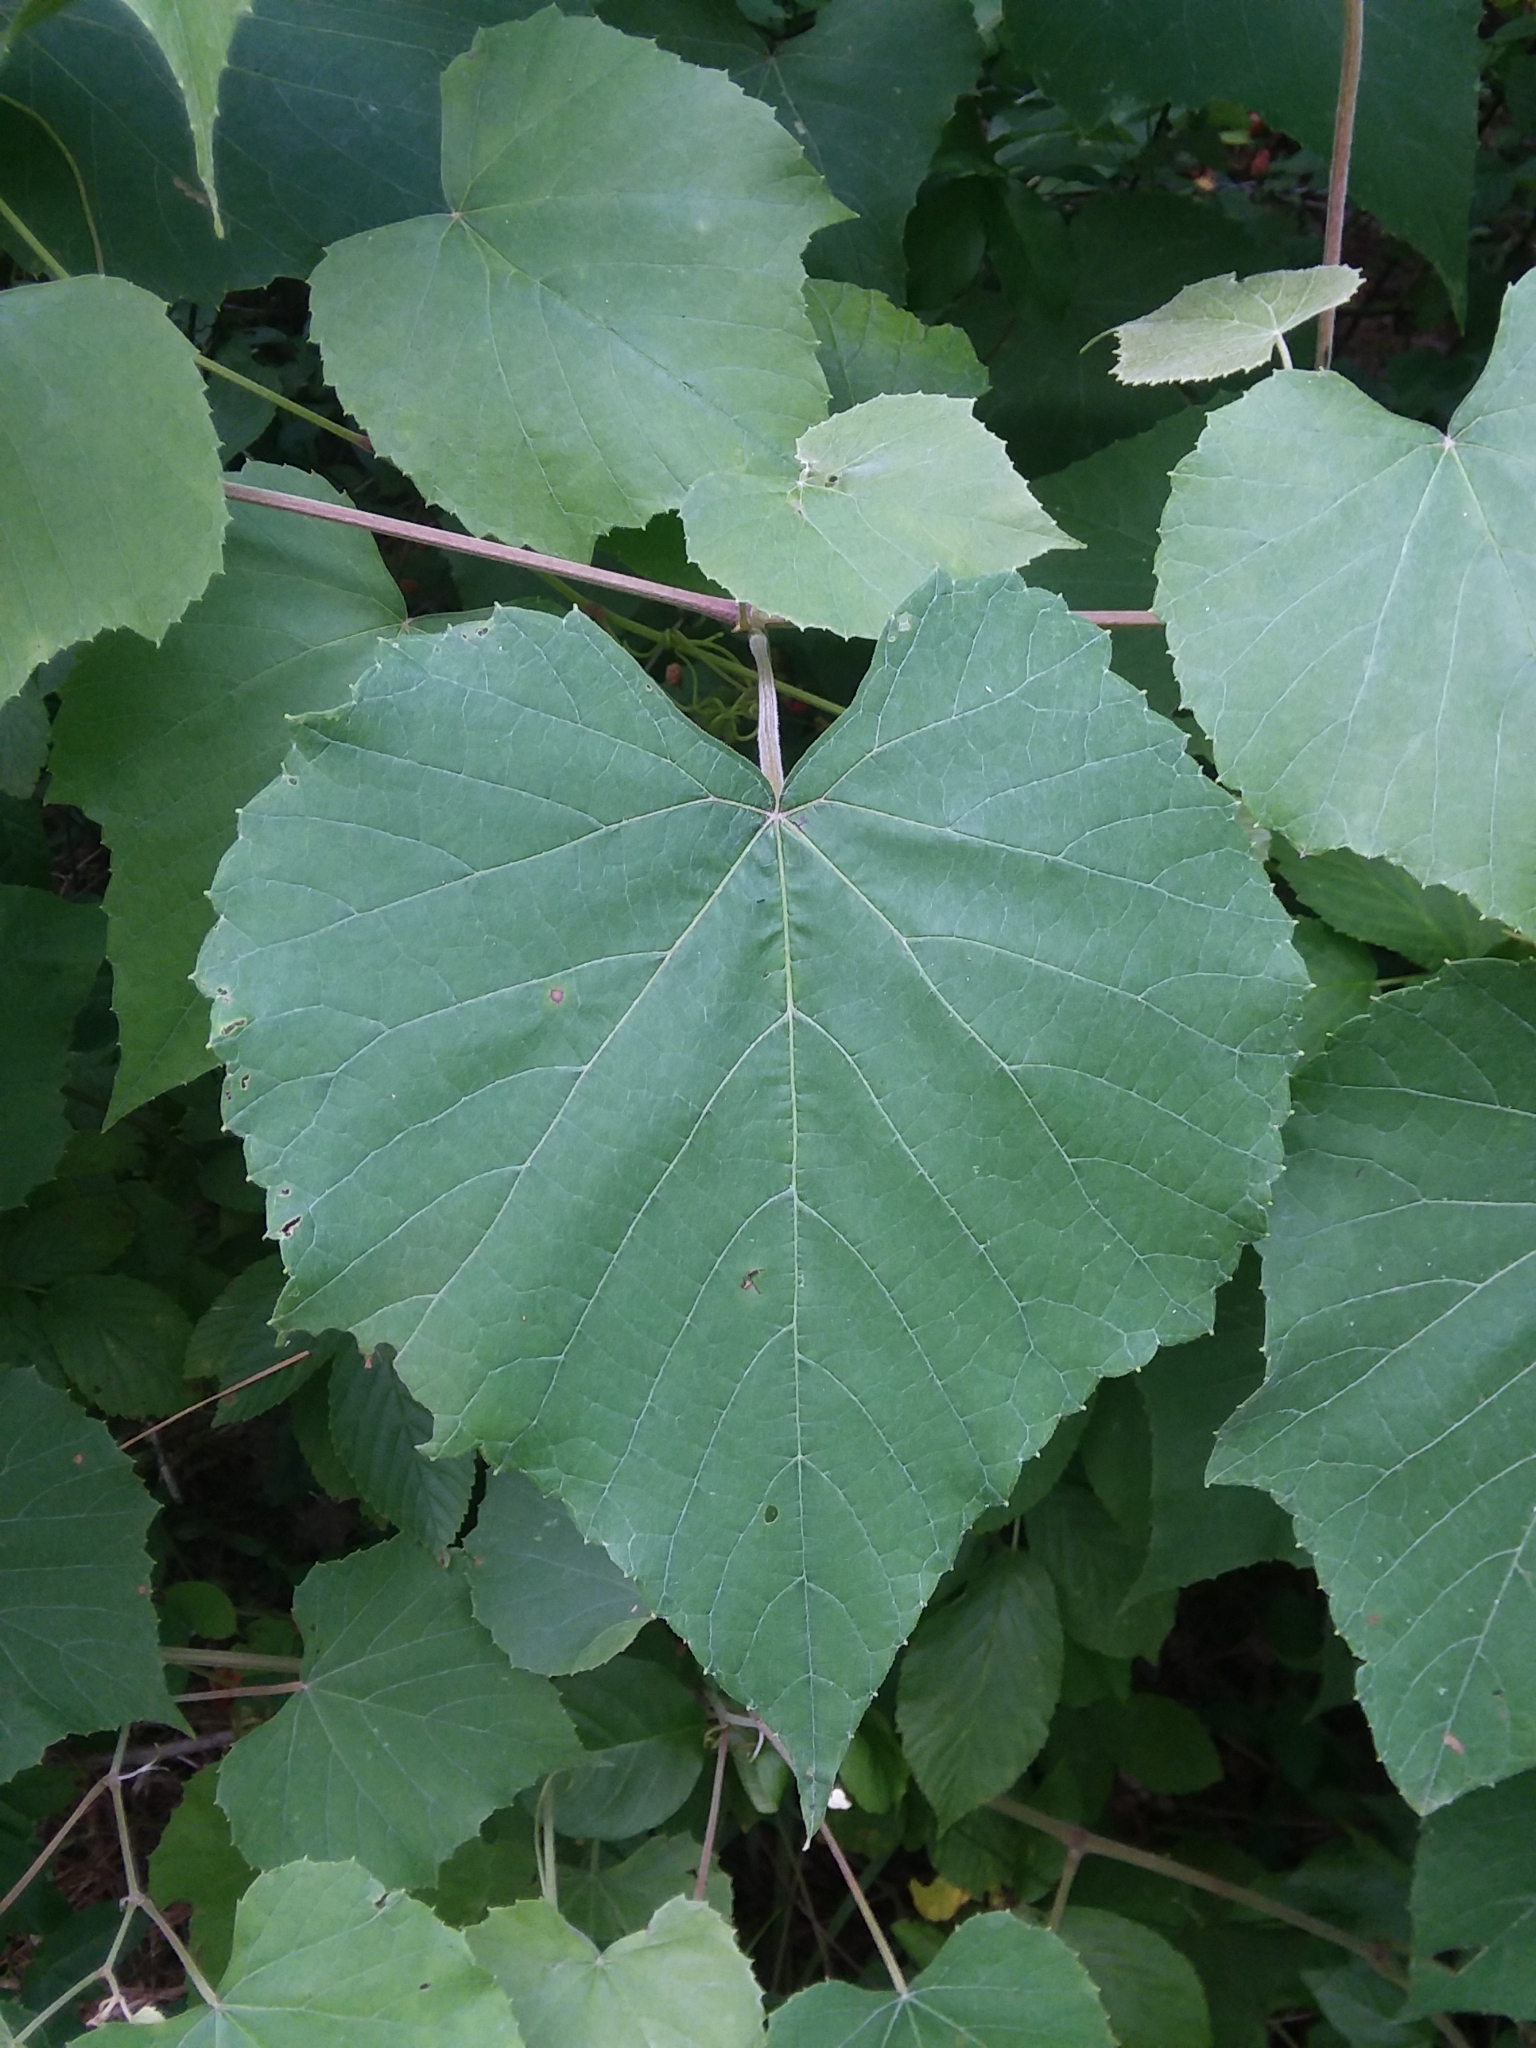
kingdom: Plantae
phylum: Tracheophyta
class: Magnoliopsida
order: Vitales
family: Vitaceae
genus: Vitis
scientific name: Vitis cinerea
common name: Ashy grape
